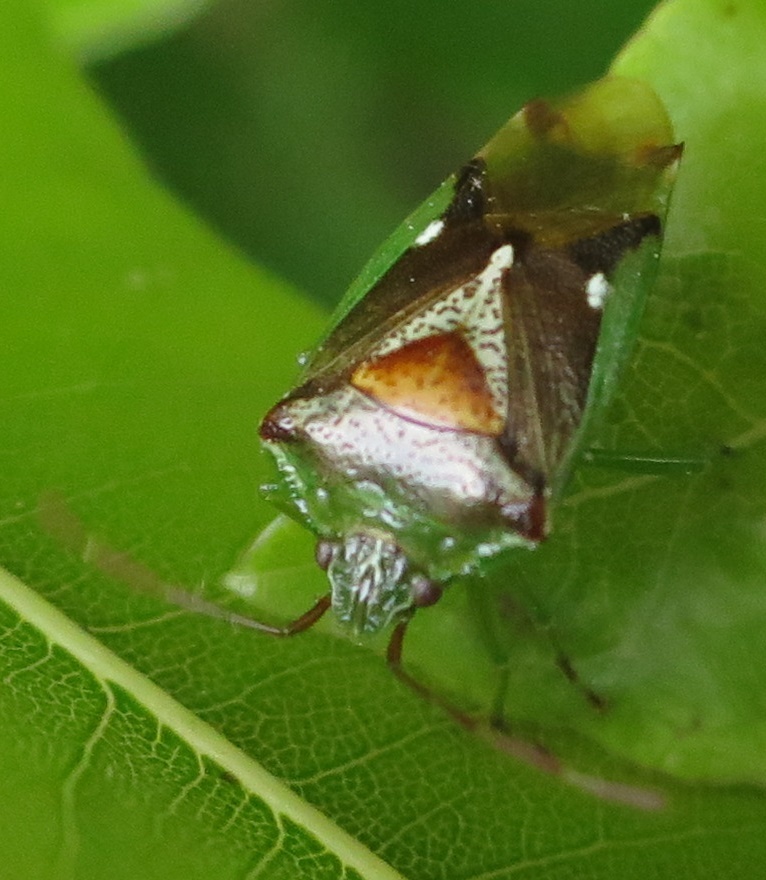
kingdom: Animalia
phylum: Arthropoda
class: Insecta
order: Hemiptera
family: Acanthosomatidae
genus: Oncacontias
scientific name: Oncacontias vittatus
